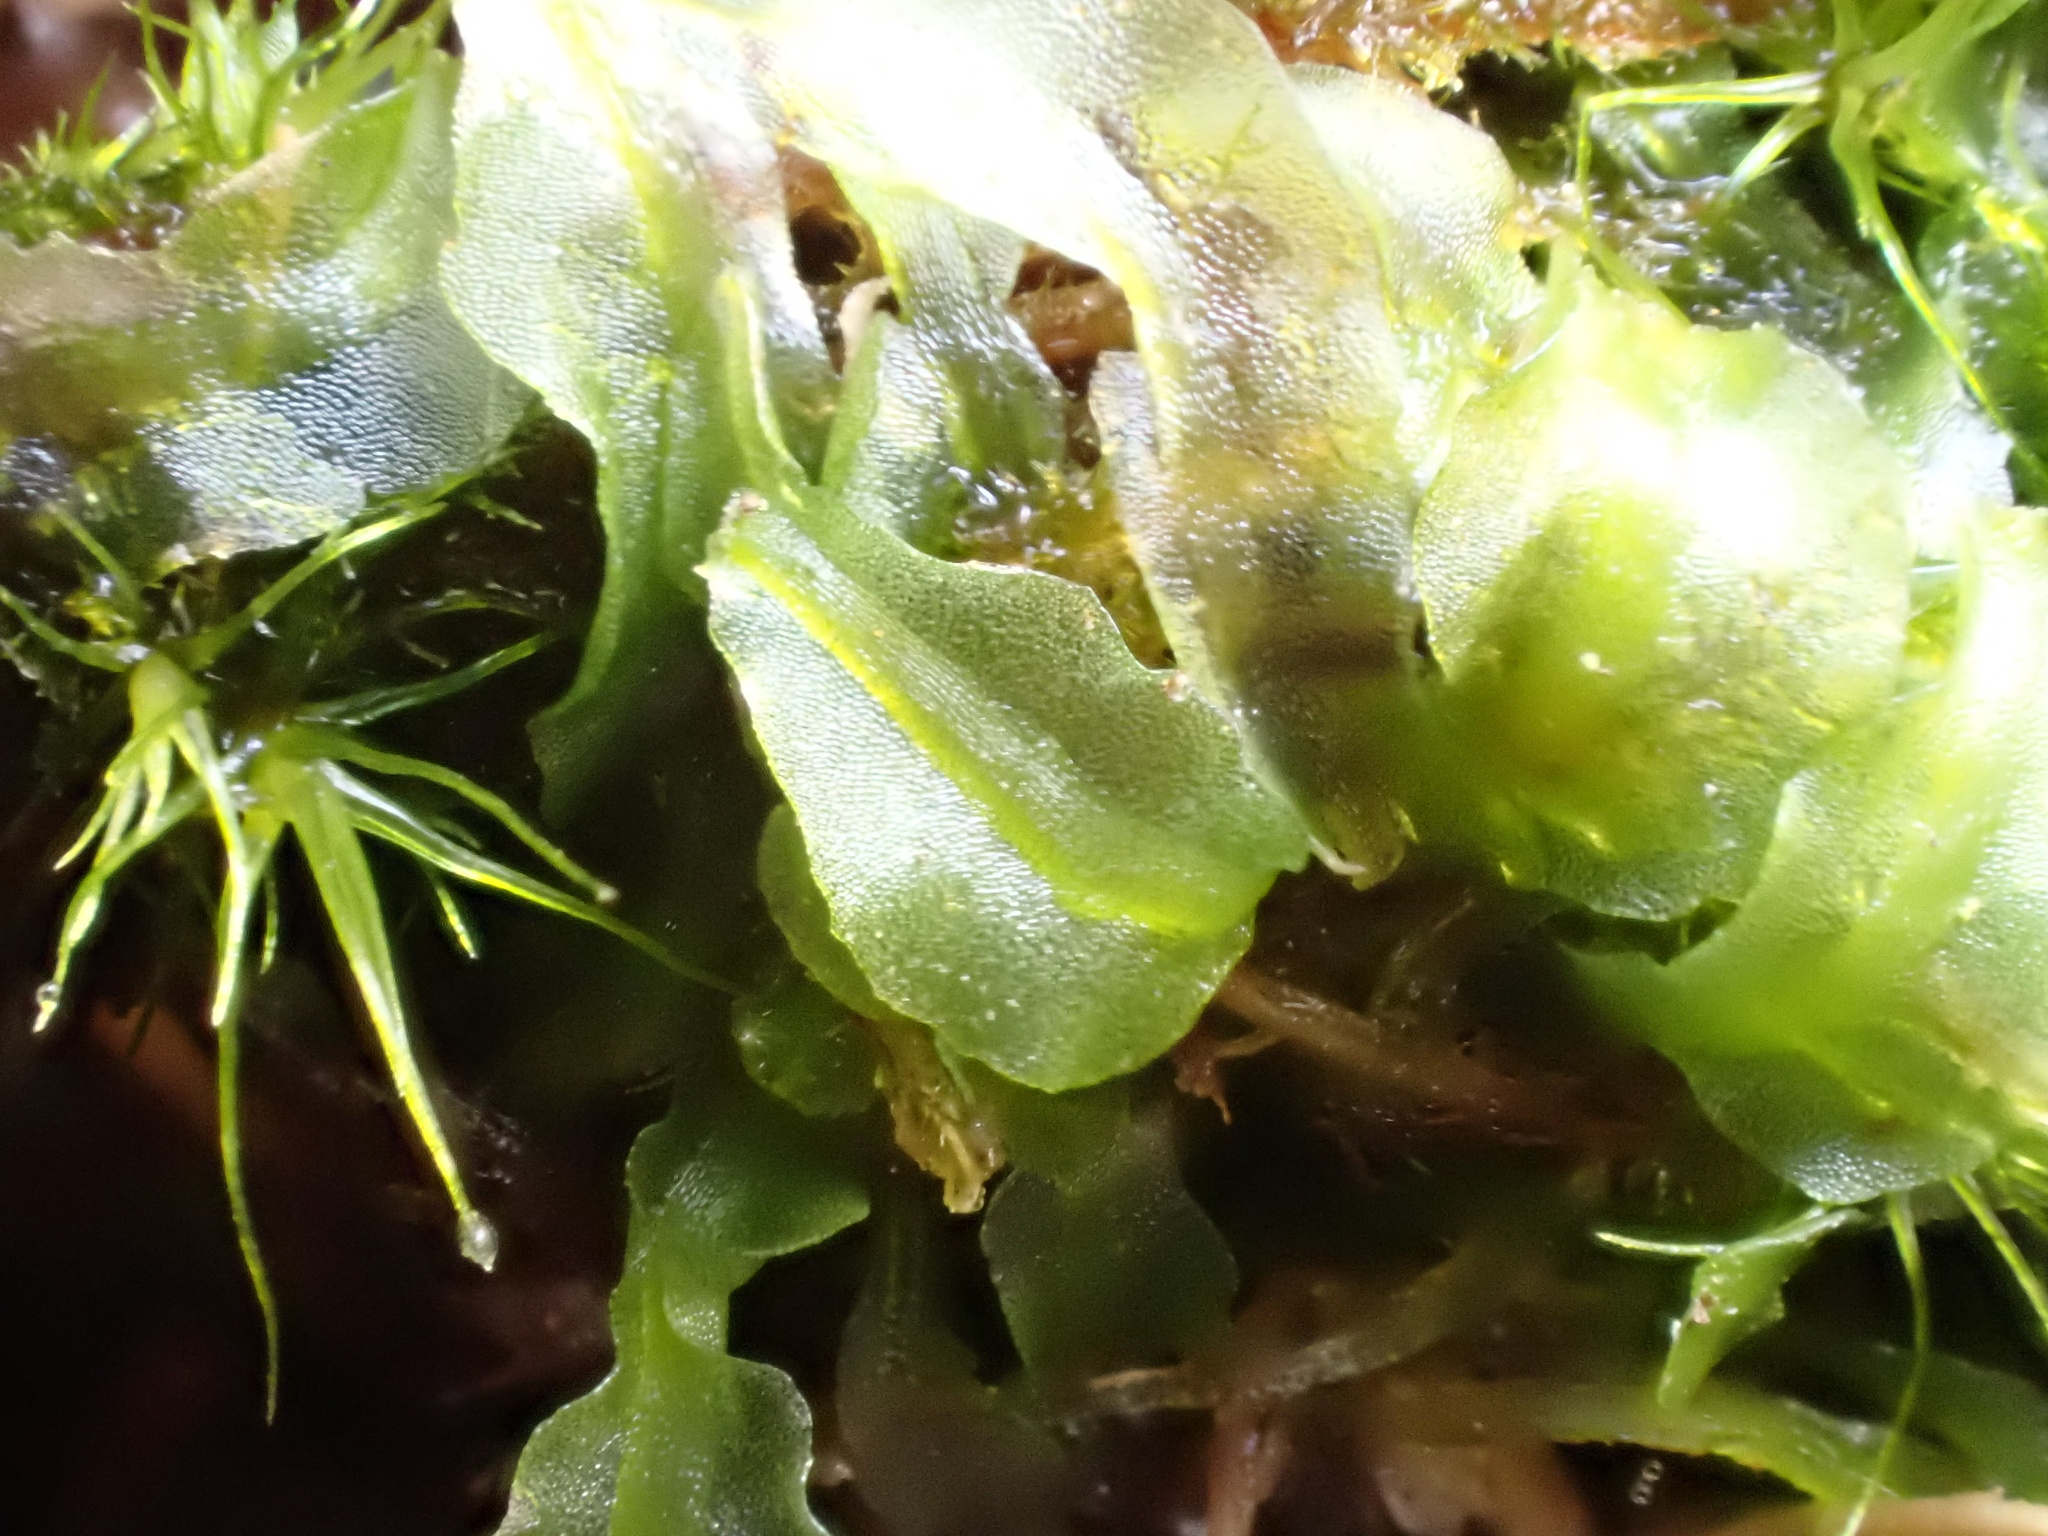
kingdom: Plantae
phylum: Marchantiophyta
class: Jungermanniopsida
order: Pallaviciniales
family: Pallaviciniaceae
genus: Pallavicinia
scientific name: Pallavicinia lyellii
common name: Veilwort
